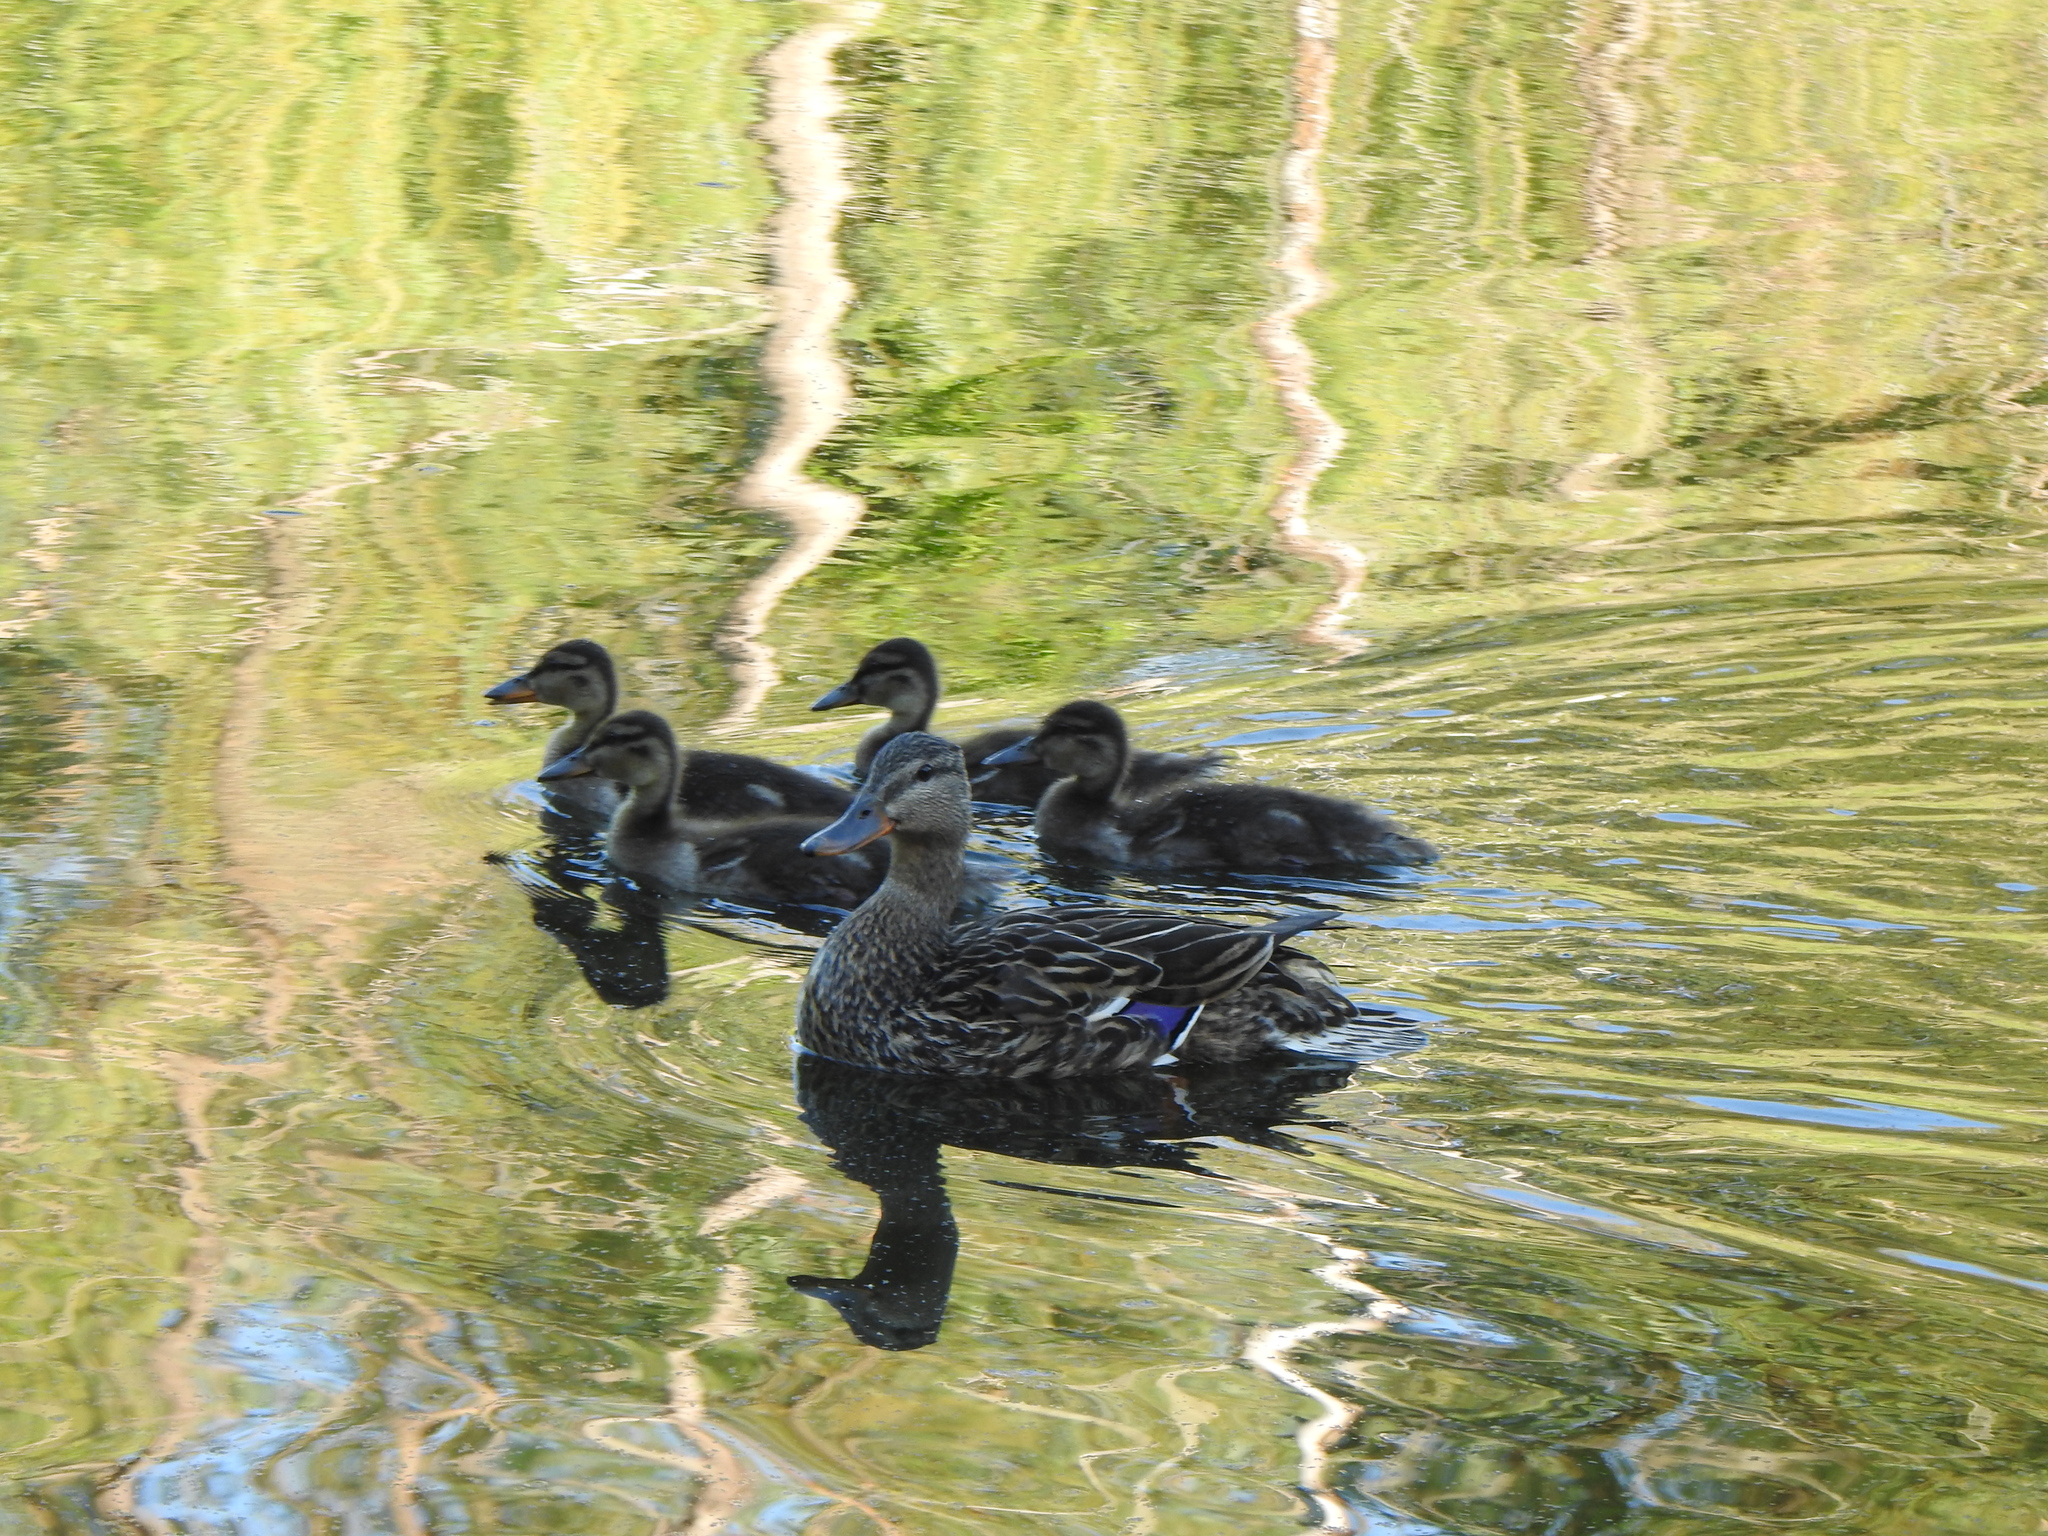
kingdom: Animalia
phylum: Chordata
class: Aves
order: Anseriformes
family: Anatidae
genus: Anas
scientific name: Anas platyrhynchos
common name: Mallard
